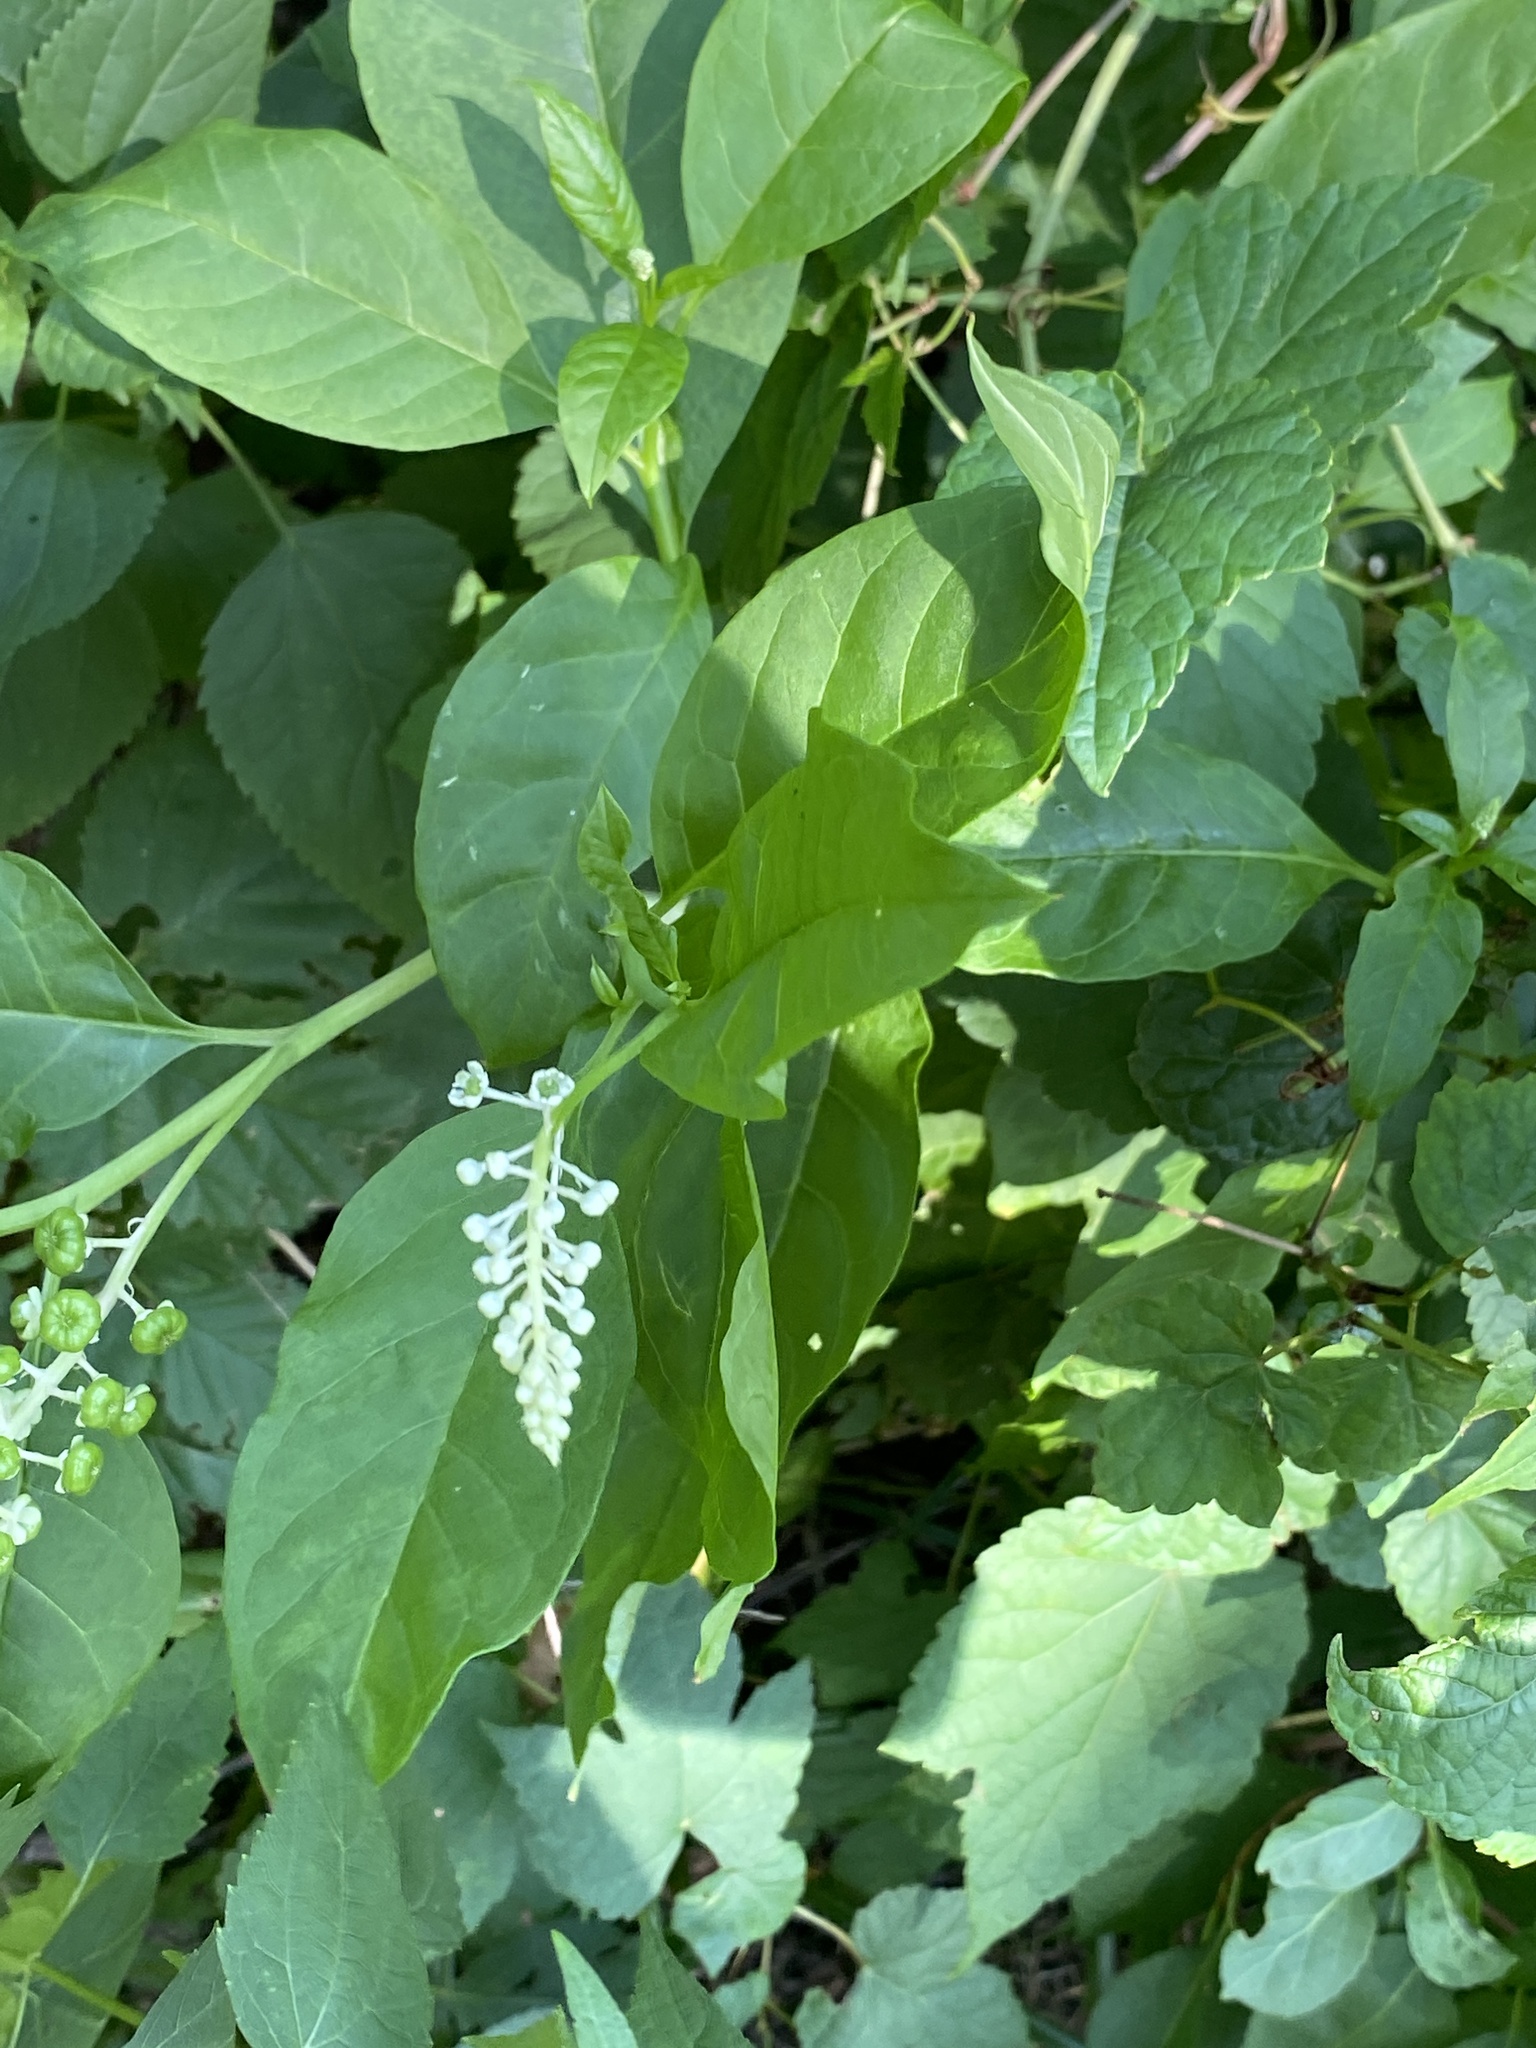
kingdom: Plantae
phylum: Tracheophyta
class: Magnoliopsida
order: Caryophyllales
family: Phytolaccaceae
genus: Phytolacca
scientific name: Phytolacca americana
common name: American pokeweed
